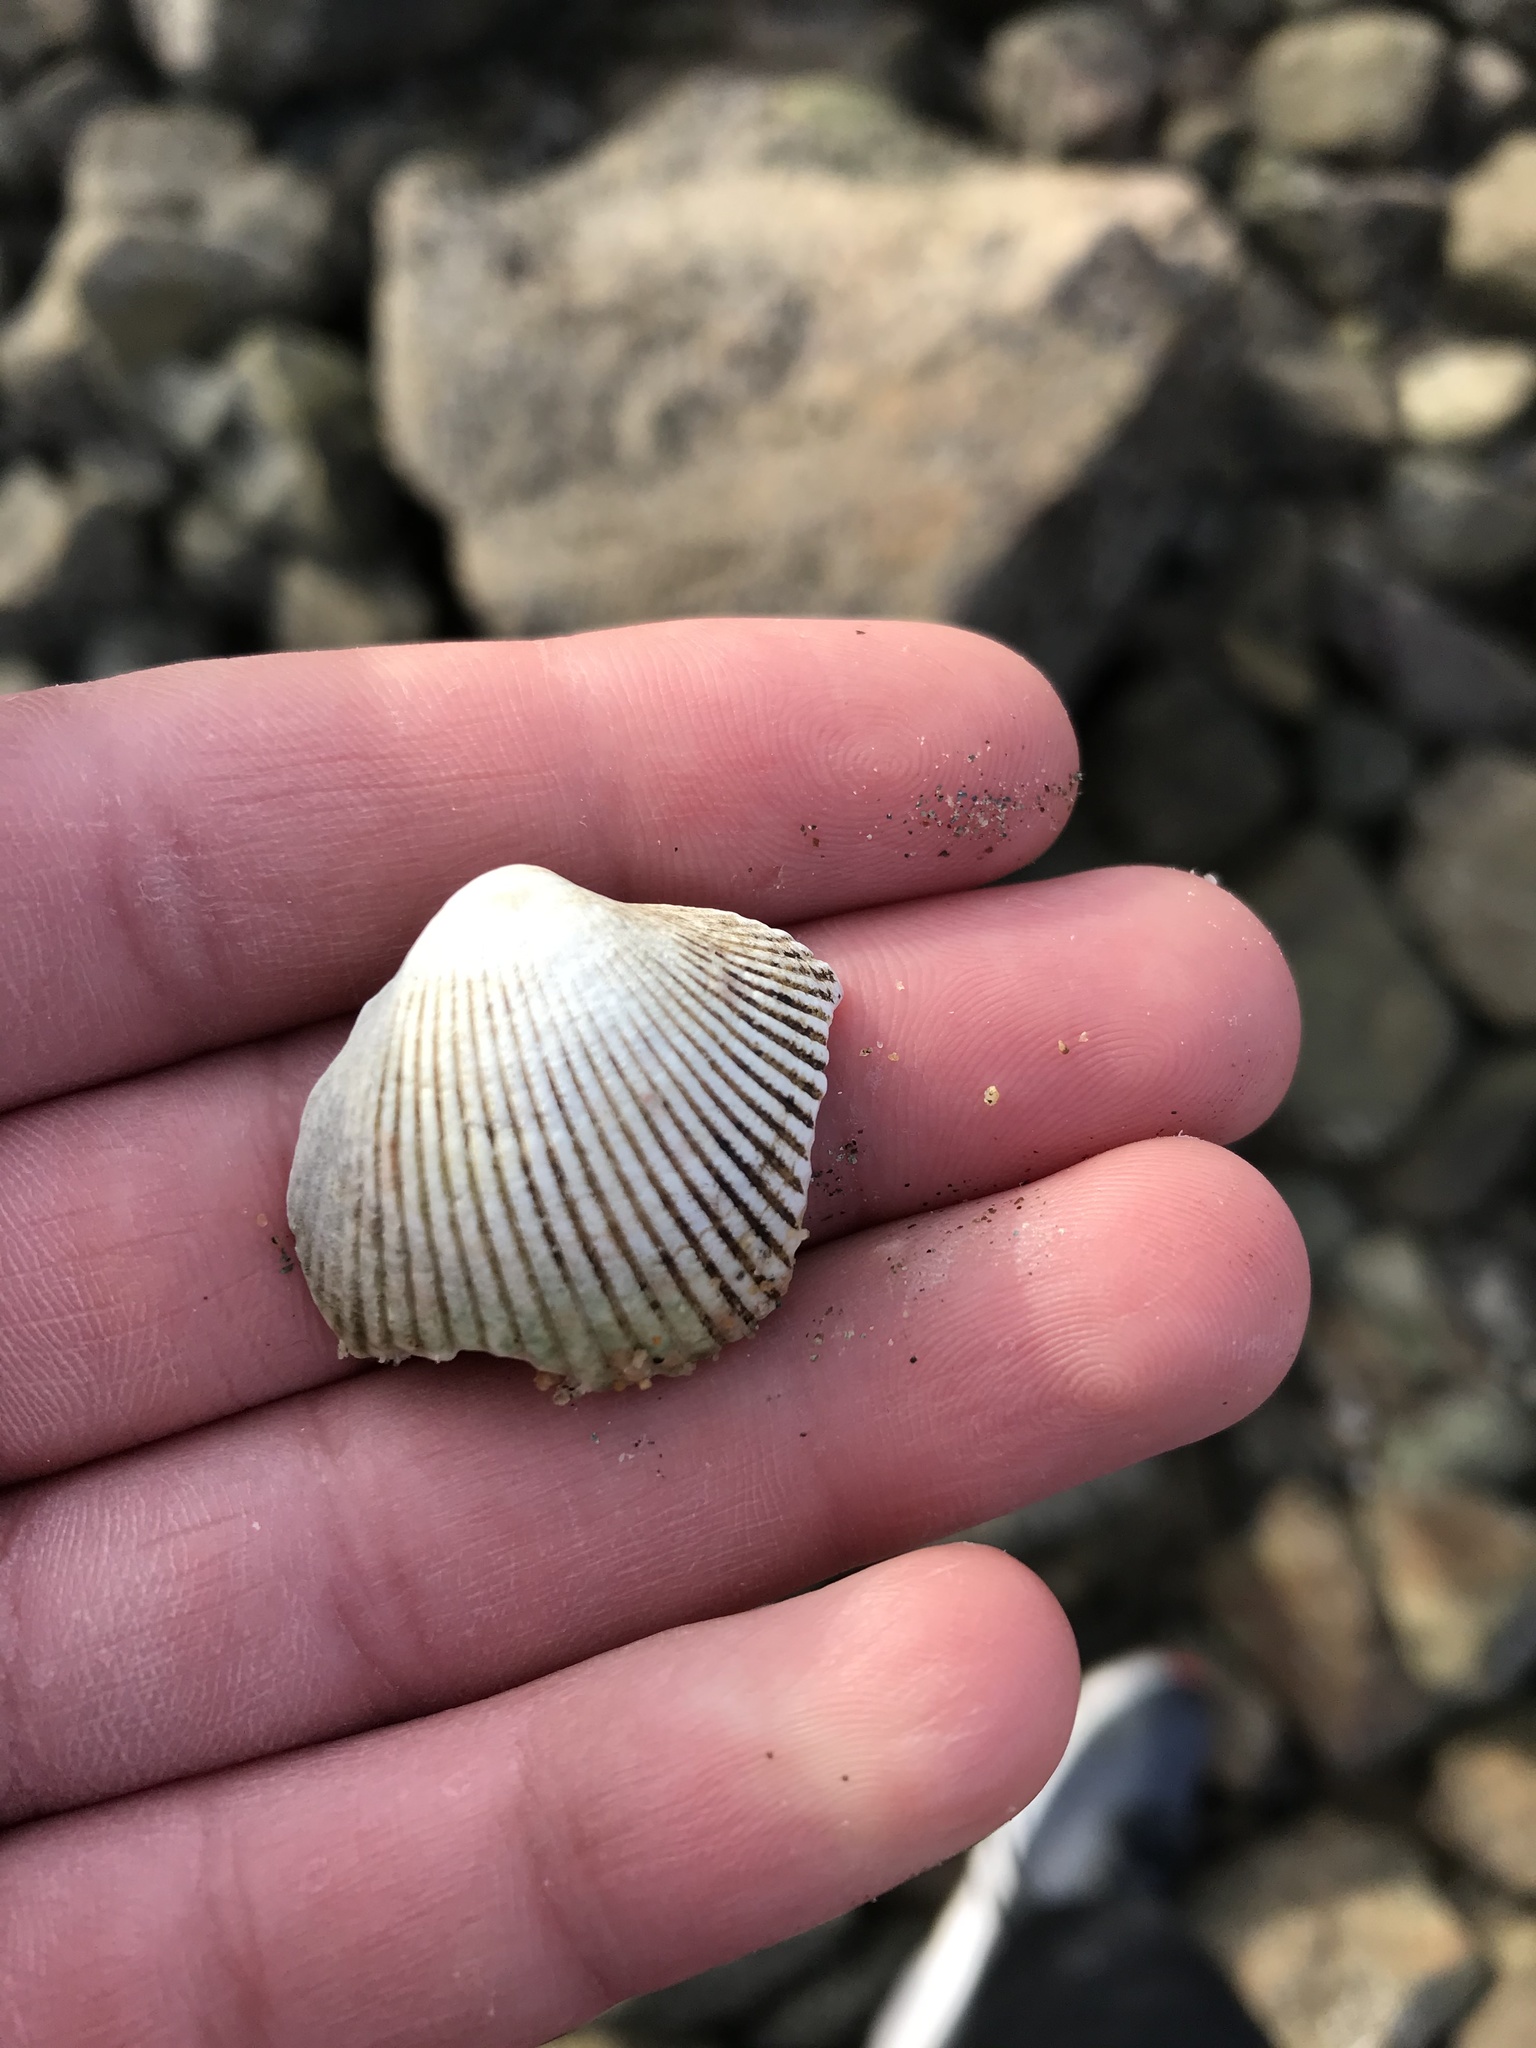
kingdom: Animalia
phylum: Mollusca
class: Bivalvia
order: Cardiida
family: Cardiidae
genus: Clinocardium
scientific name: Clinocardium nuttallii
